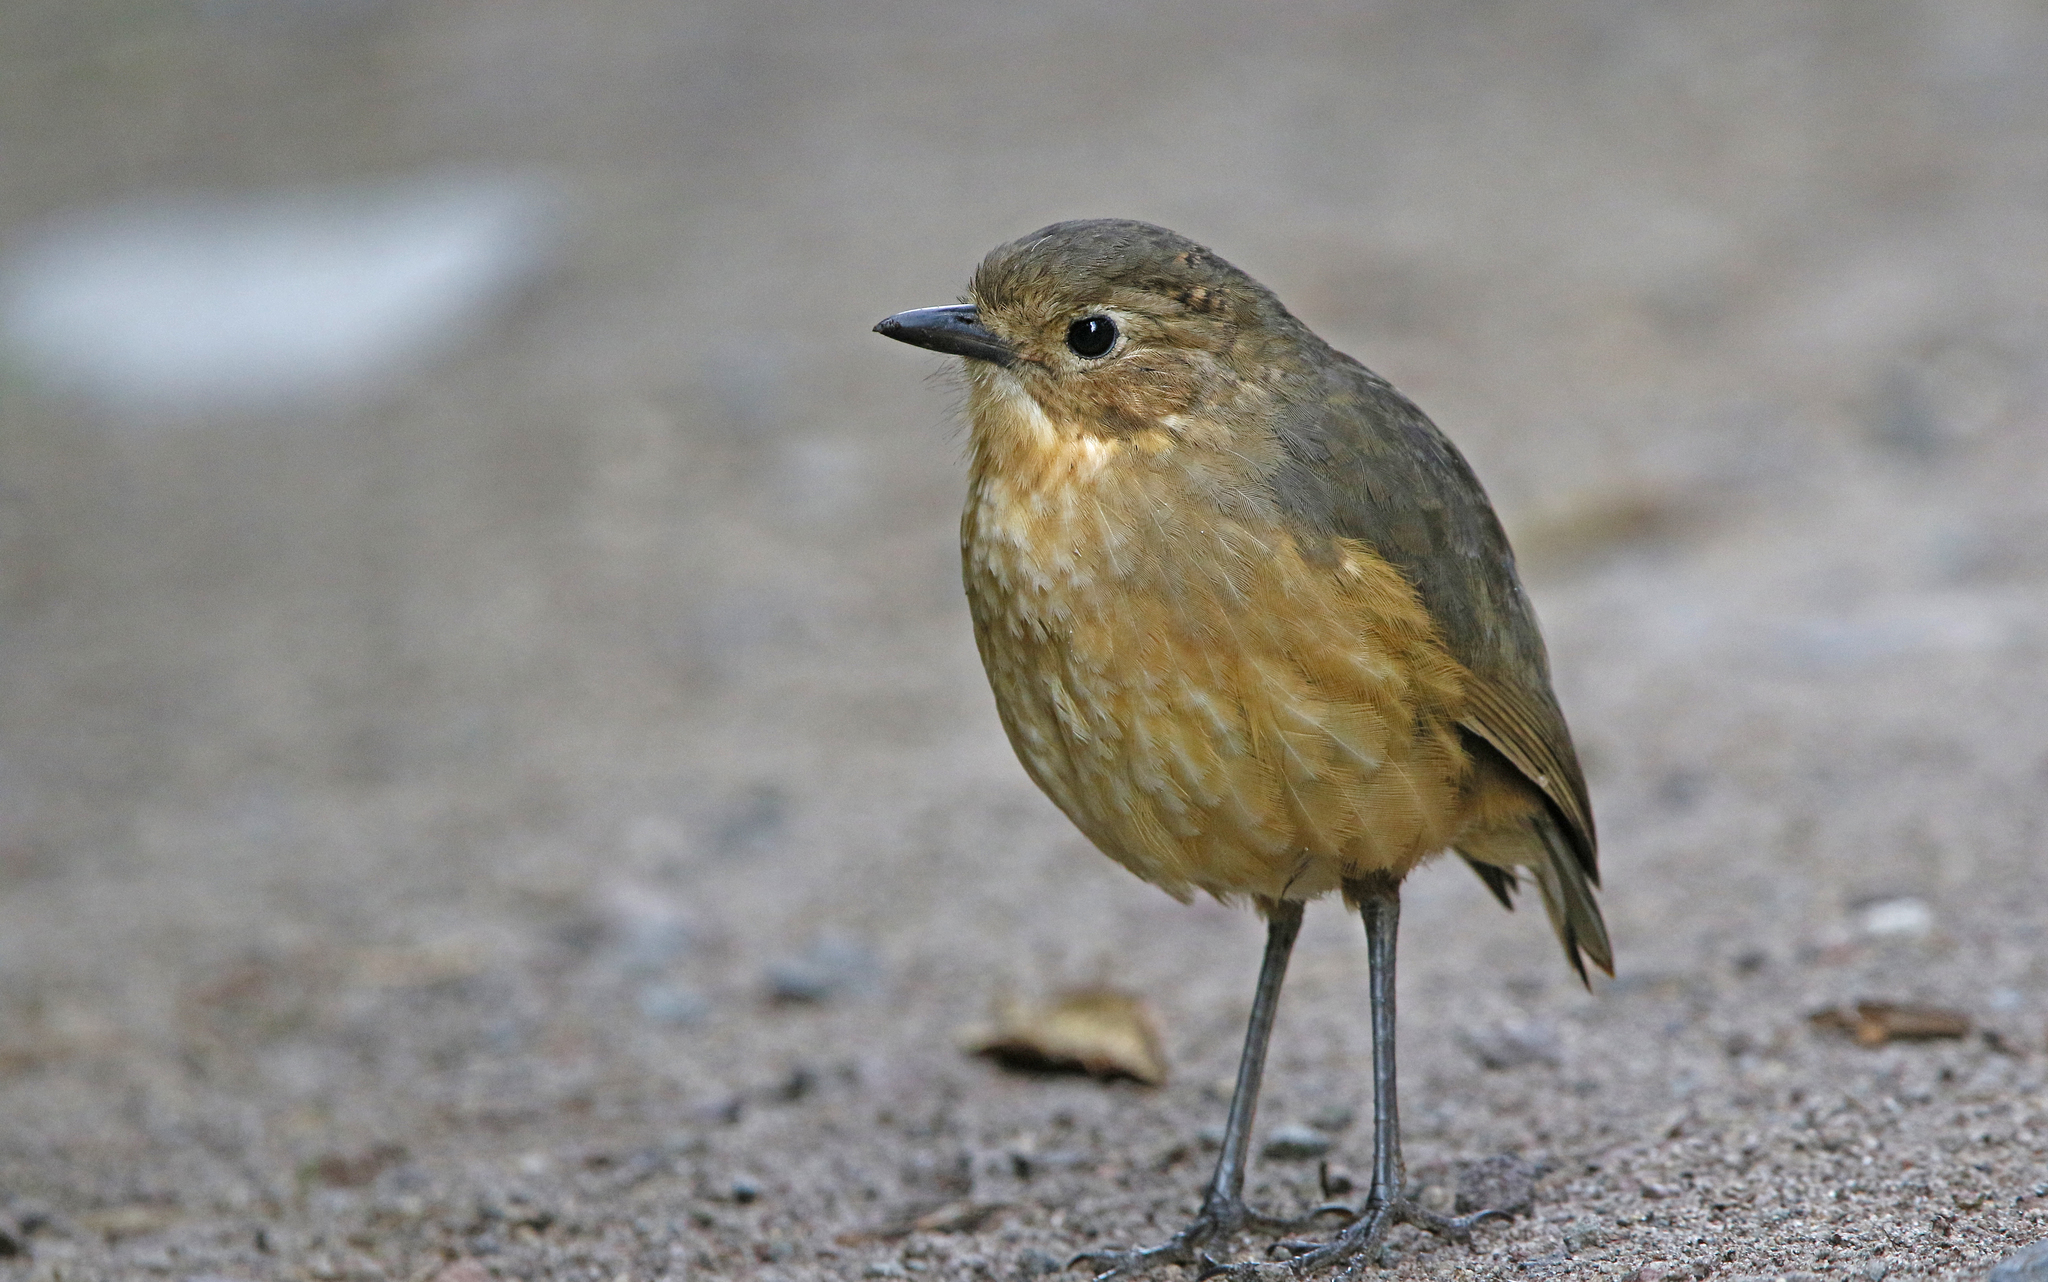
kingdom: Animalia
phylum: Chordata
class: Aves
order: Passeriformes
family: Grallariidae
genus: Grallaria
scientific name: Grallaria quitensis
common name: Tawny antpitta
